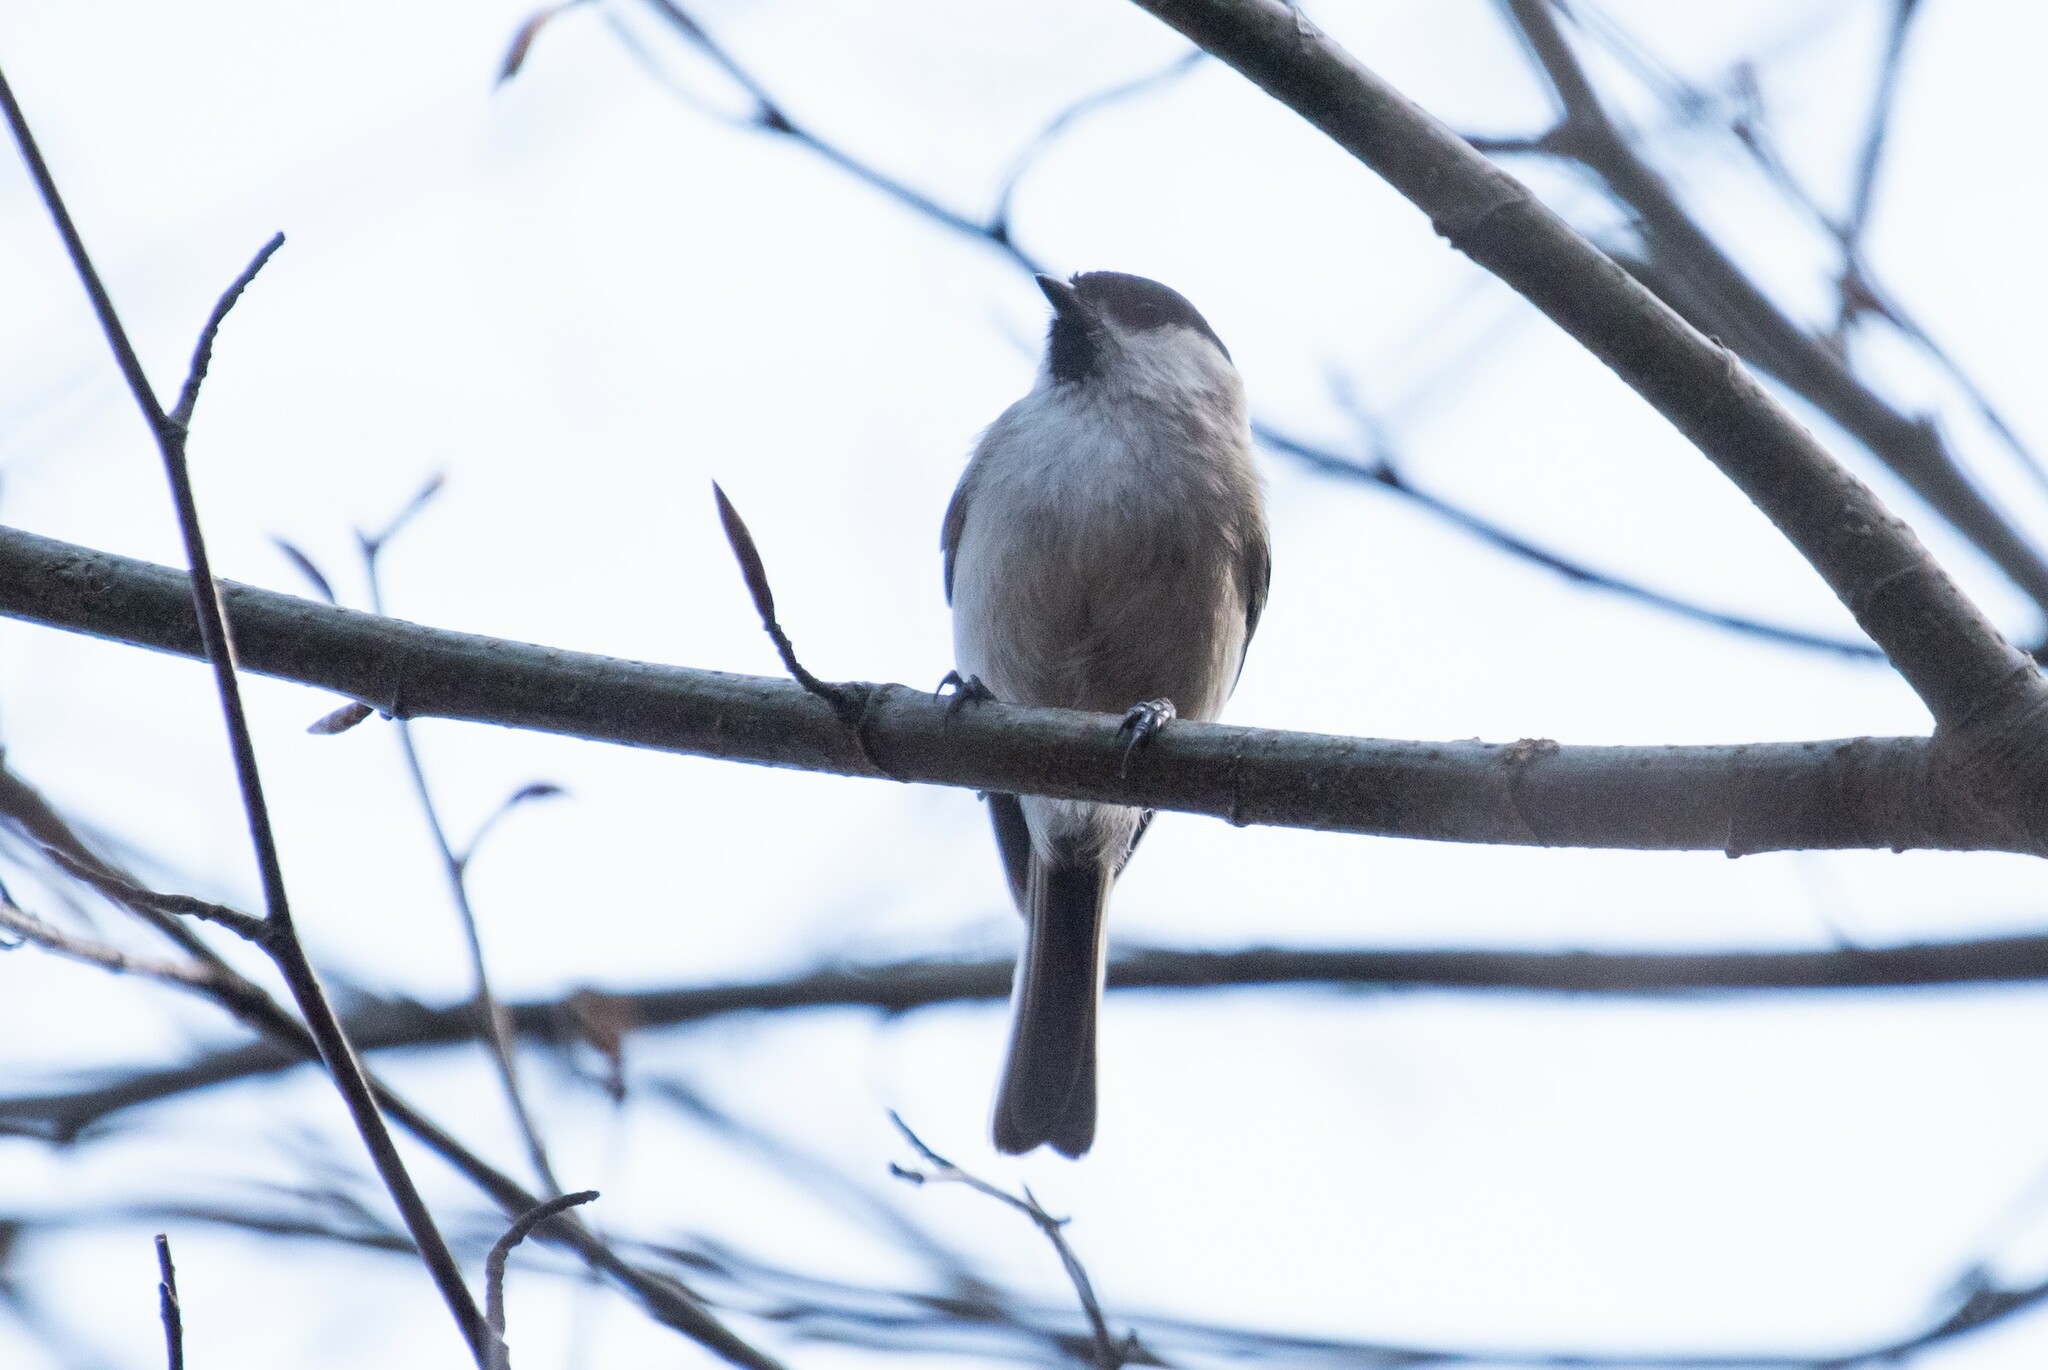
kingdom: Animalia
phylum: Chordata
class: Aves
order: Passeriformes
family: Paridae
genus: Poecile
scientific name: Poecile palustris
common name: Marsh tit
